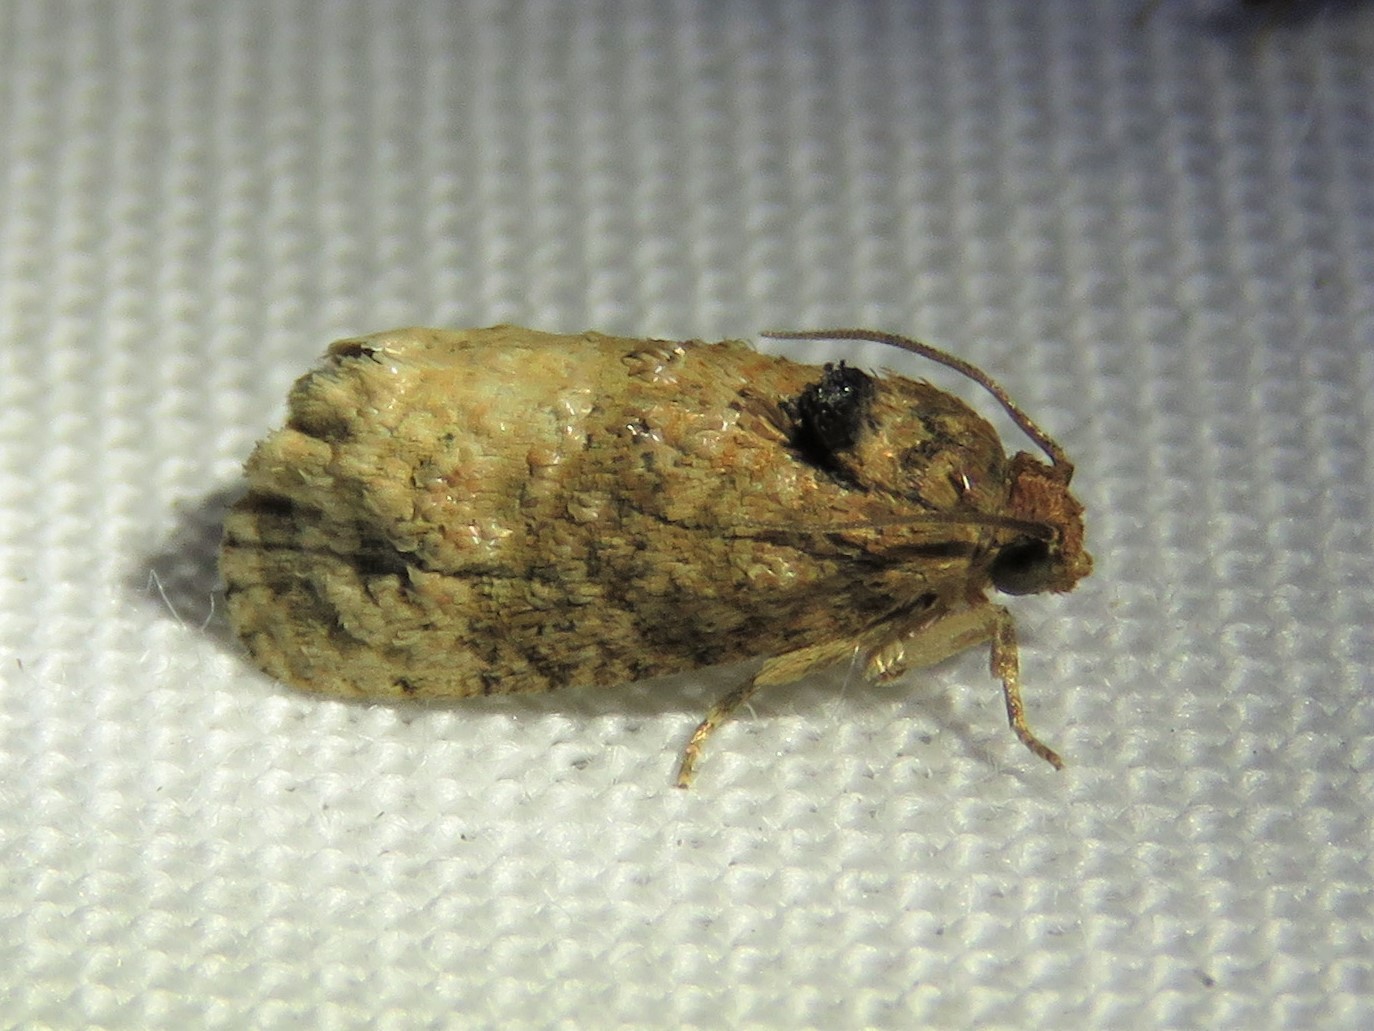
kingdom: Animalia
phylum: Arthropoda
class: Insecta
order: Lepidoptera
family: Tortricidae
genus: Ecdytolopha
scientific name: Ecdytolopha mana
